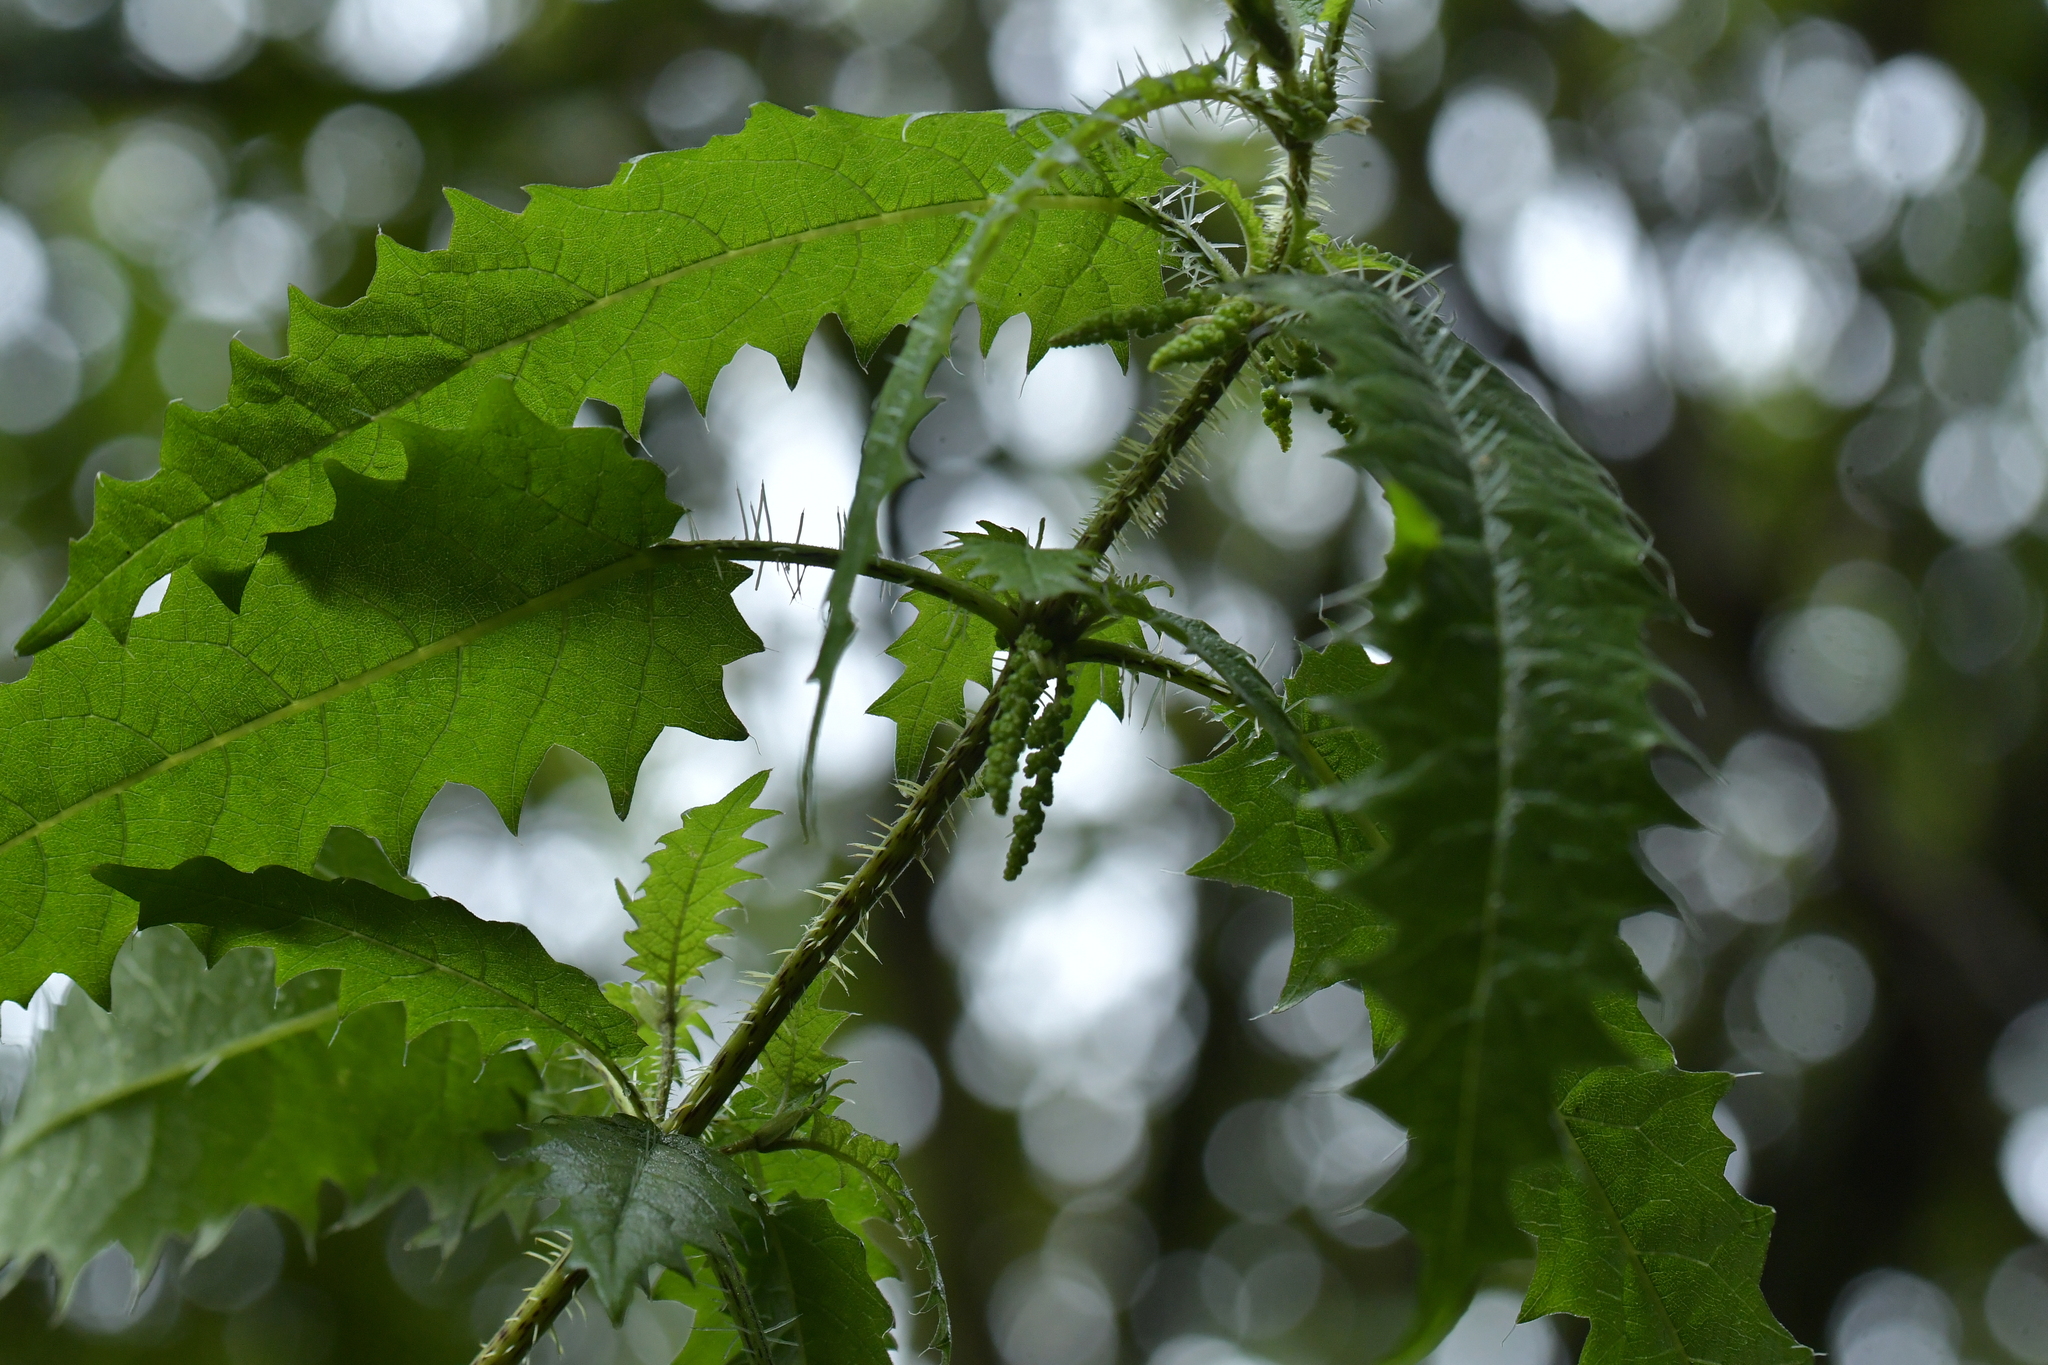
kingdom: Plantae
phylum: Tracheophyta
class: Magnoliopsida
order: Rosales
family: Urticaceae
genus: Urtica
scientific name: Urtica ferox
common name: Tree nettle
